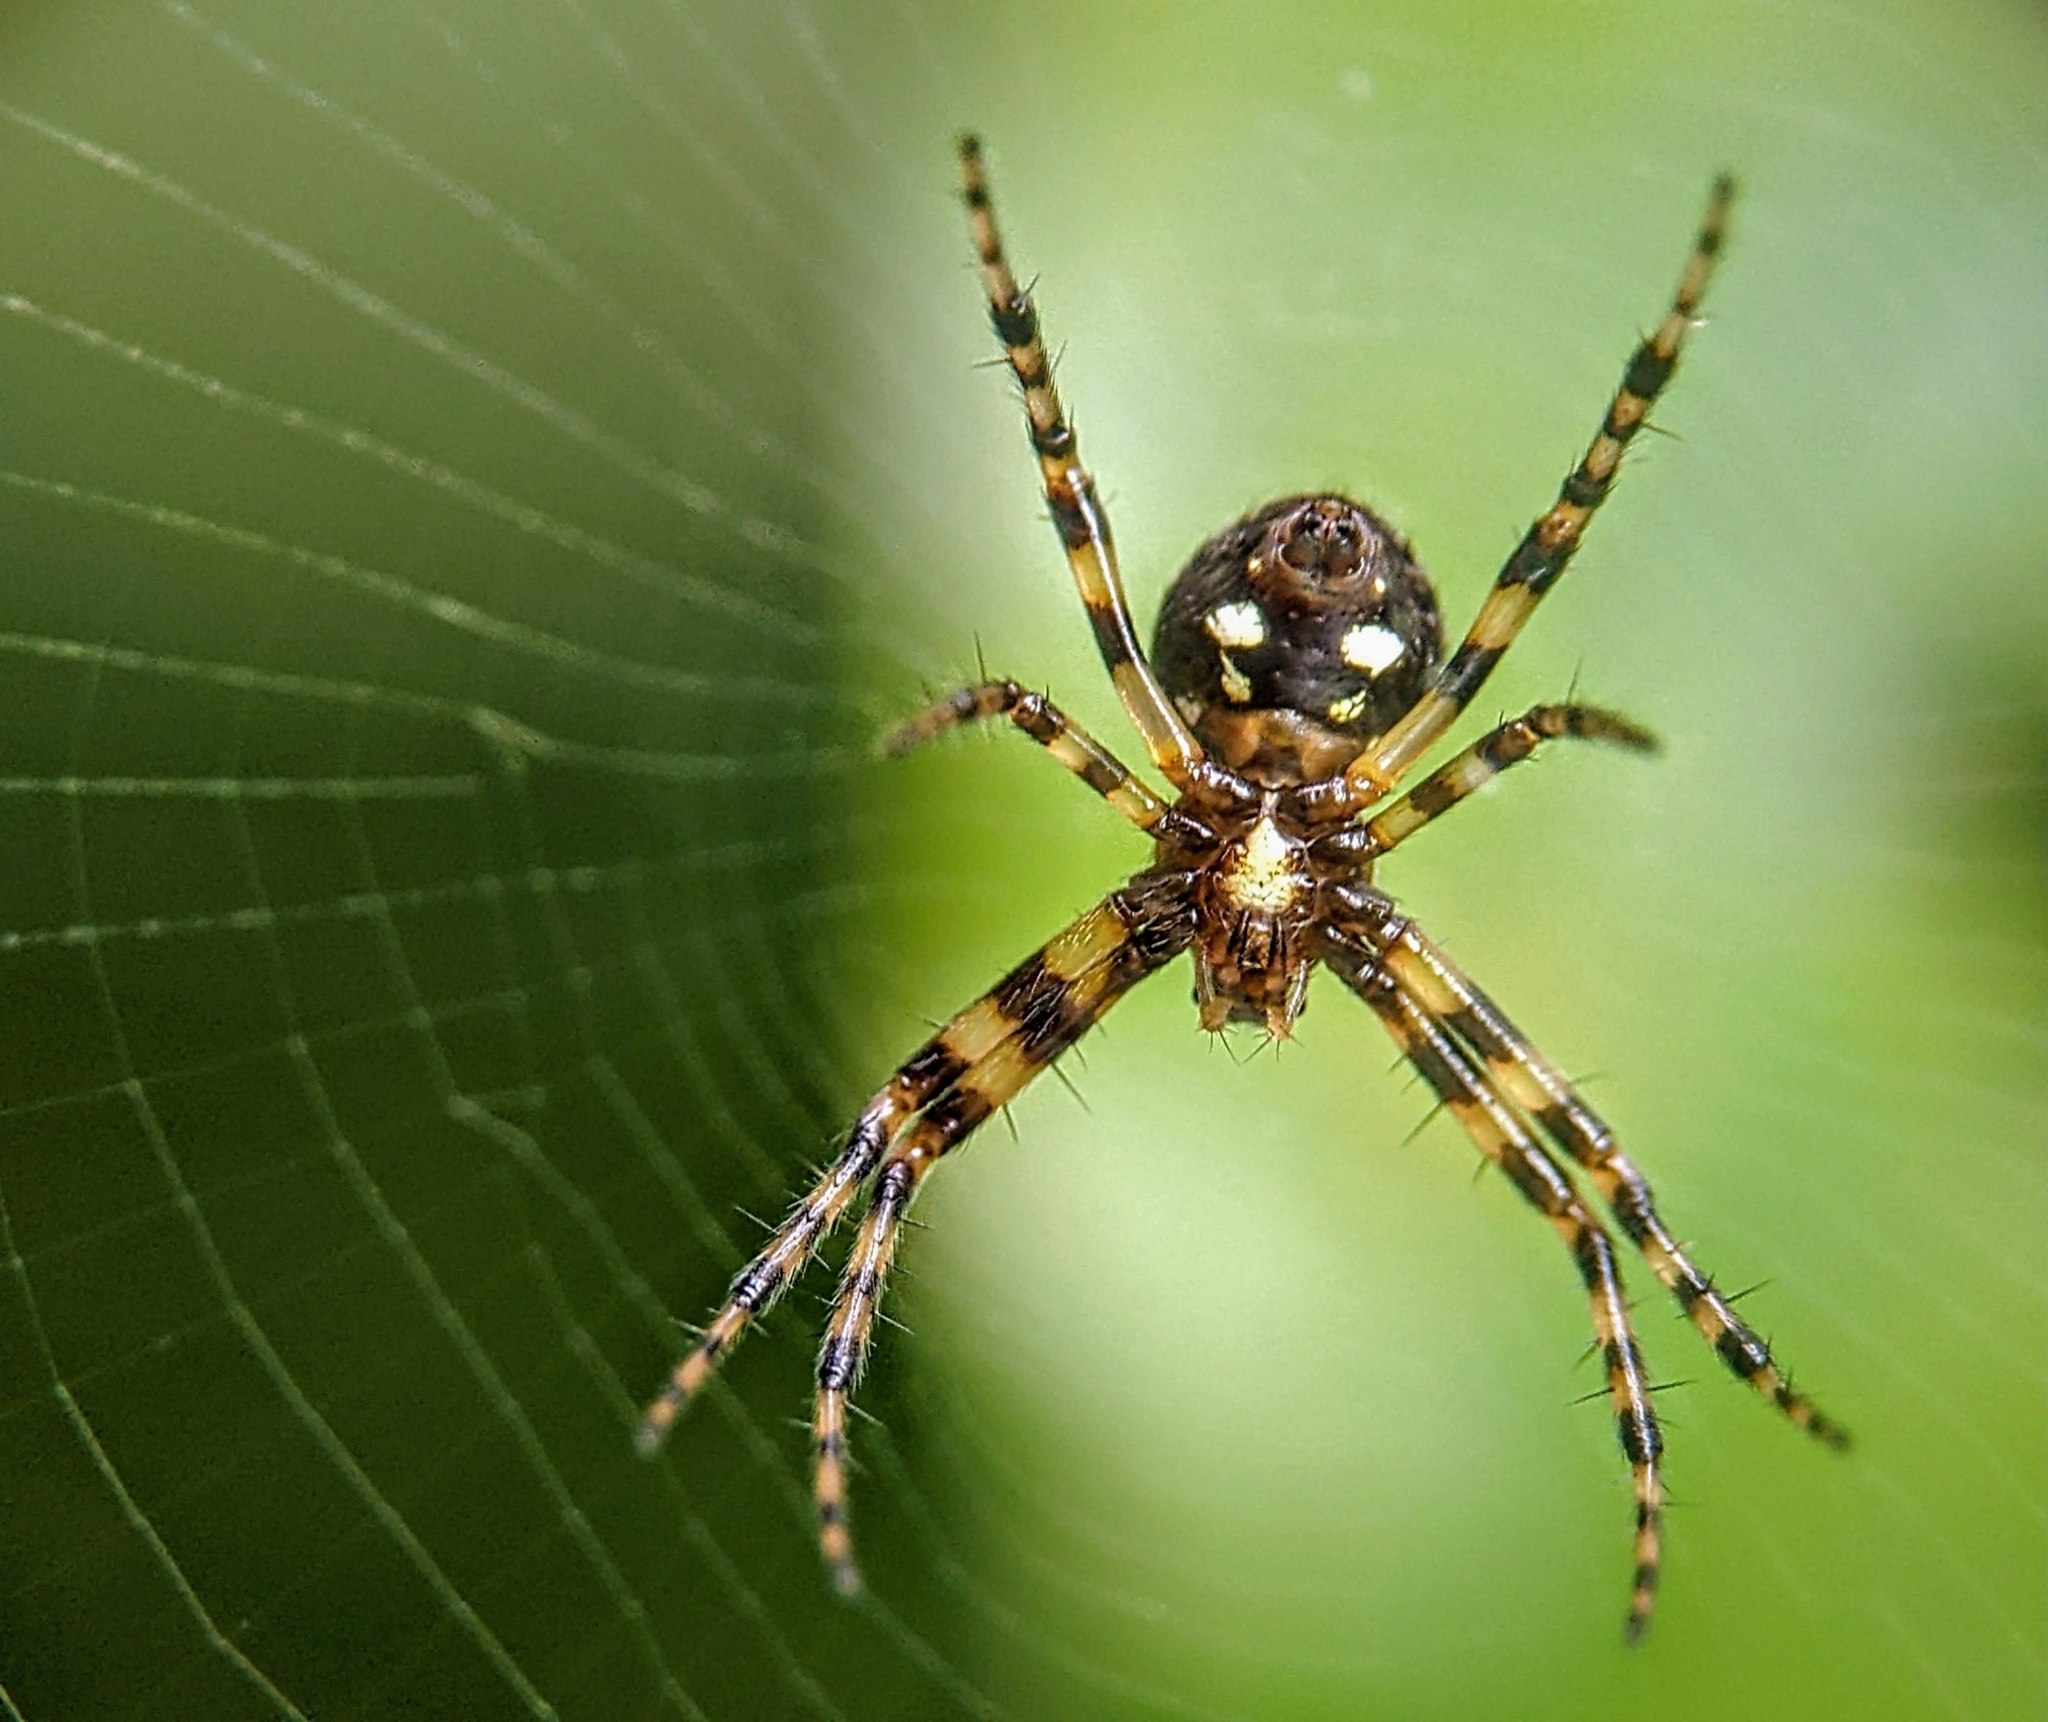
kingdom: Animalia
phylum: Arthropoda
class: Arachnida
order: Araneae
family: Araneidae
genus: Gea
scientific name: Gea spinipes
